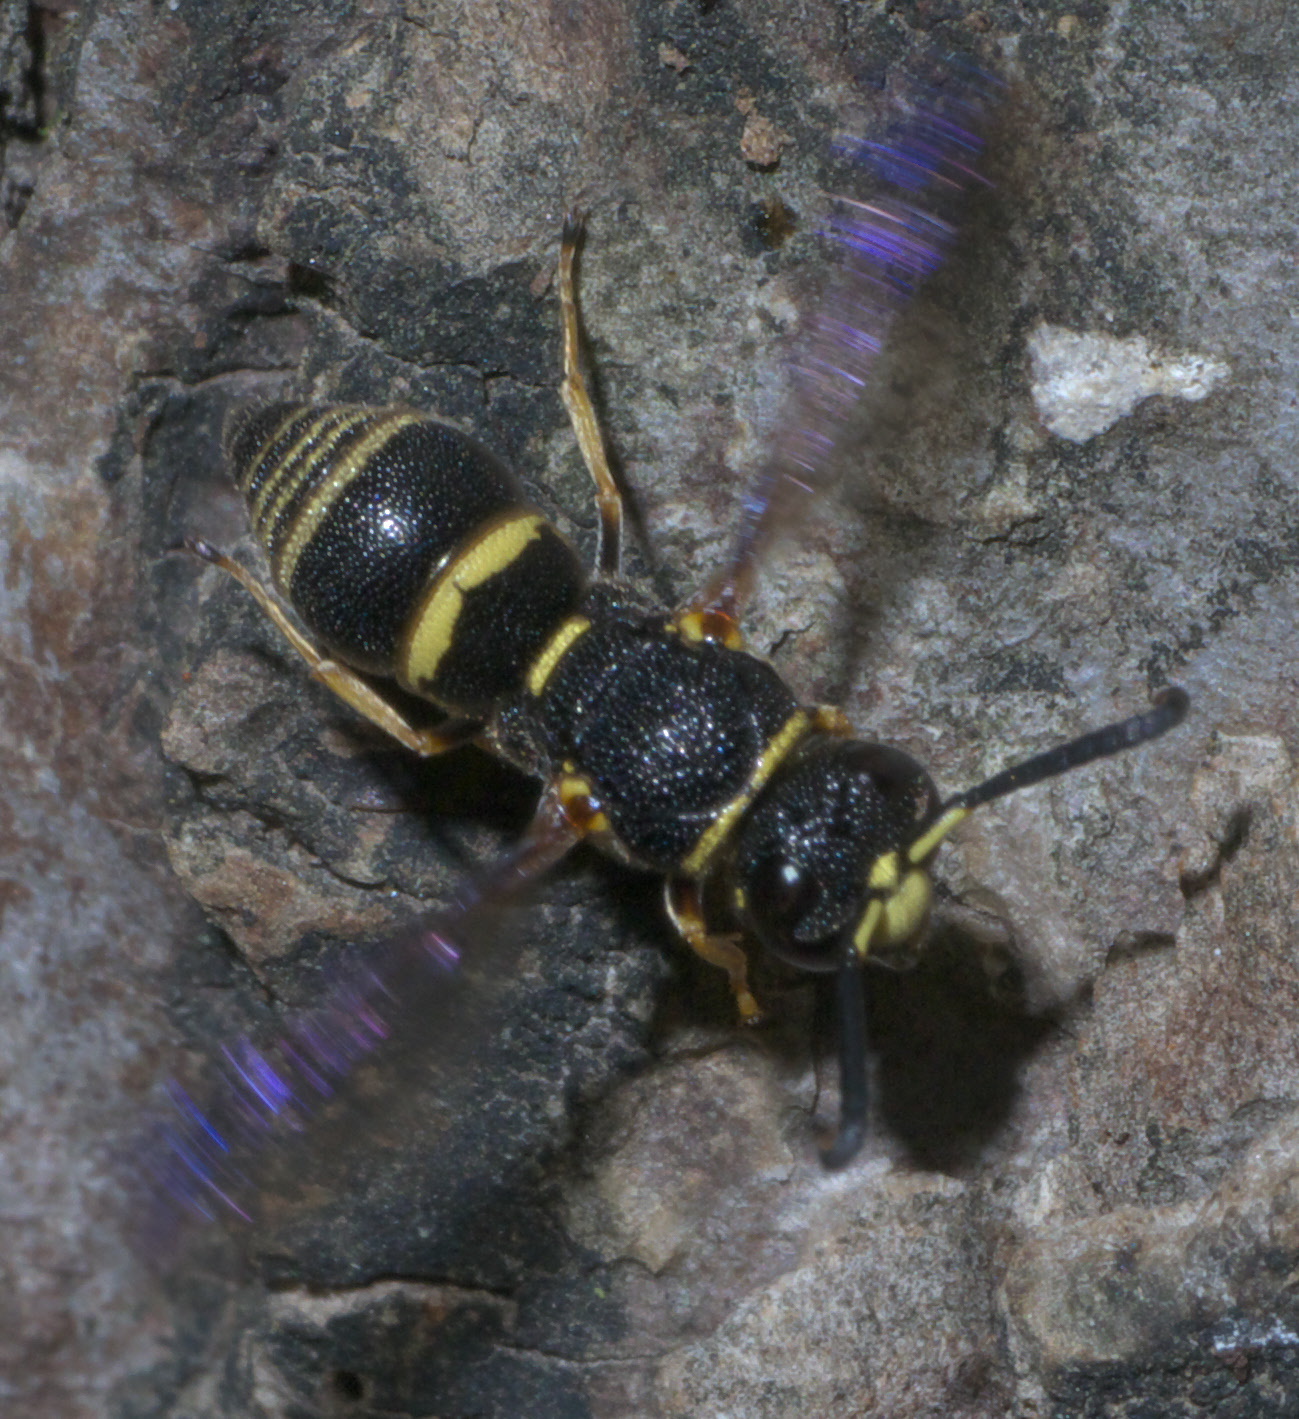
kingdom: Animalia
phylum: Arthropoda
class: Insecta
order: Hymenoptera
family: Eumenidae
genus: Euodynerus
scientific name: Euodynerus foraminatus
